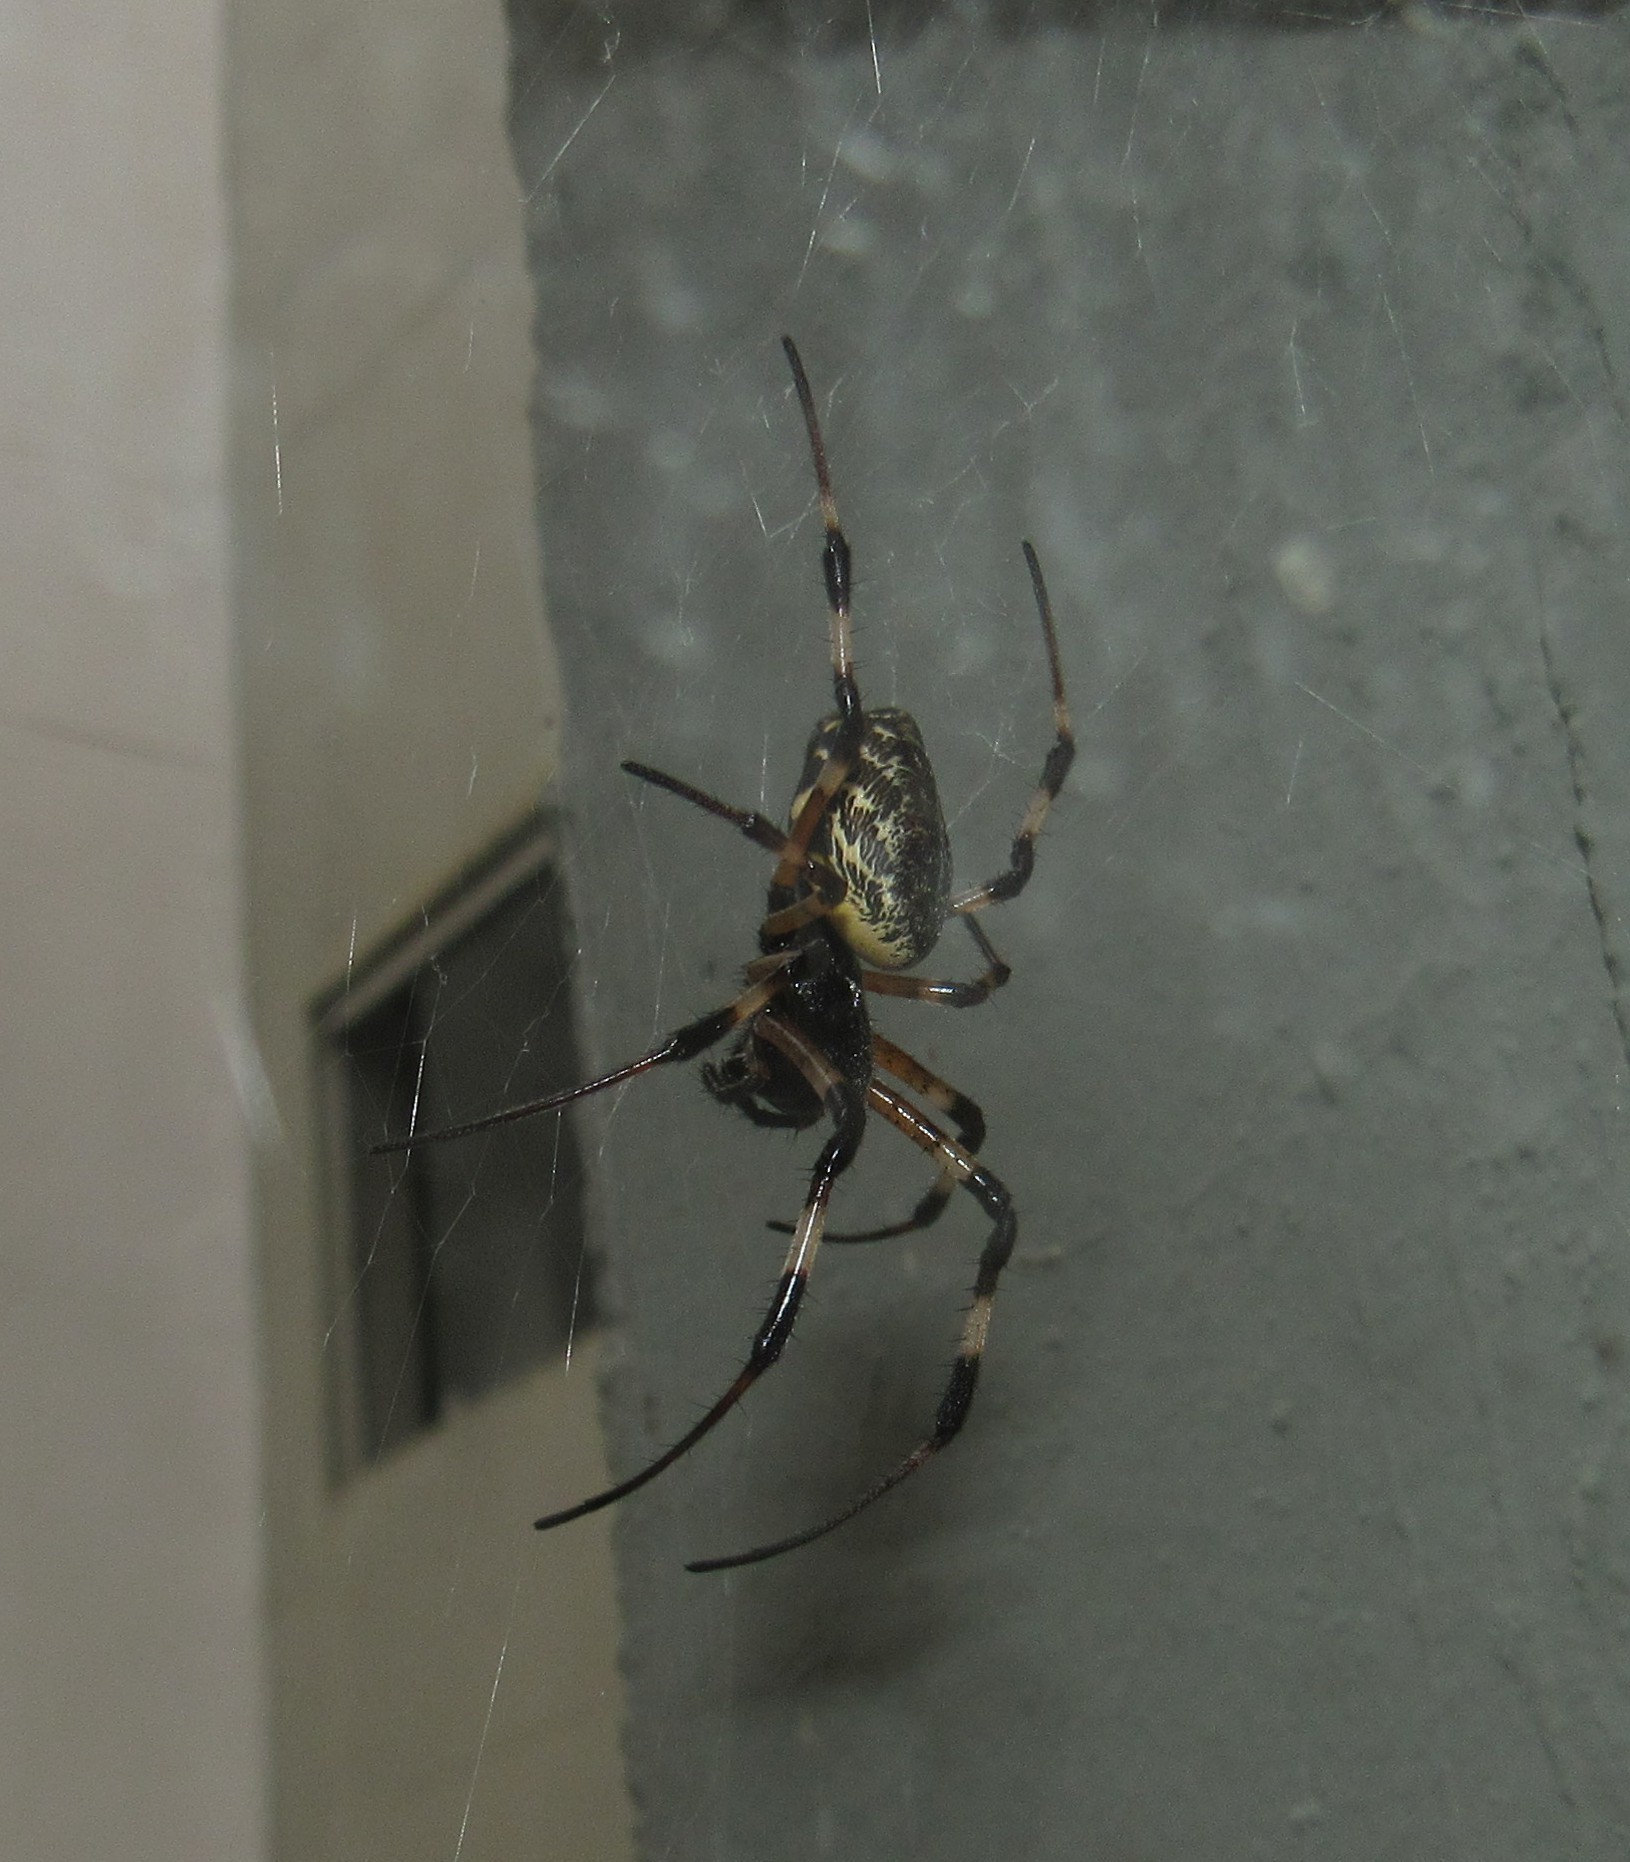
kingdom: Animalia
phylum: Arthropoda
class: Arachnida
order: Araneae
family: Araneidae
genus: Nephilingis
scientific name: Nephilingis cruentata
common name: African hermit spider
